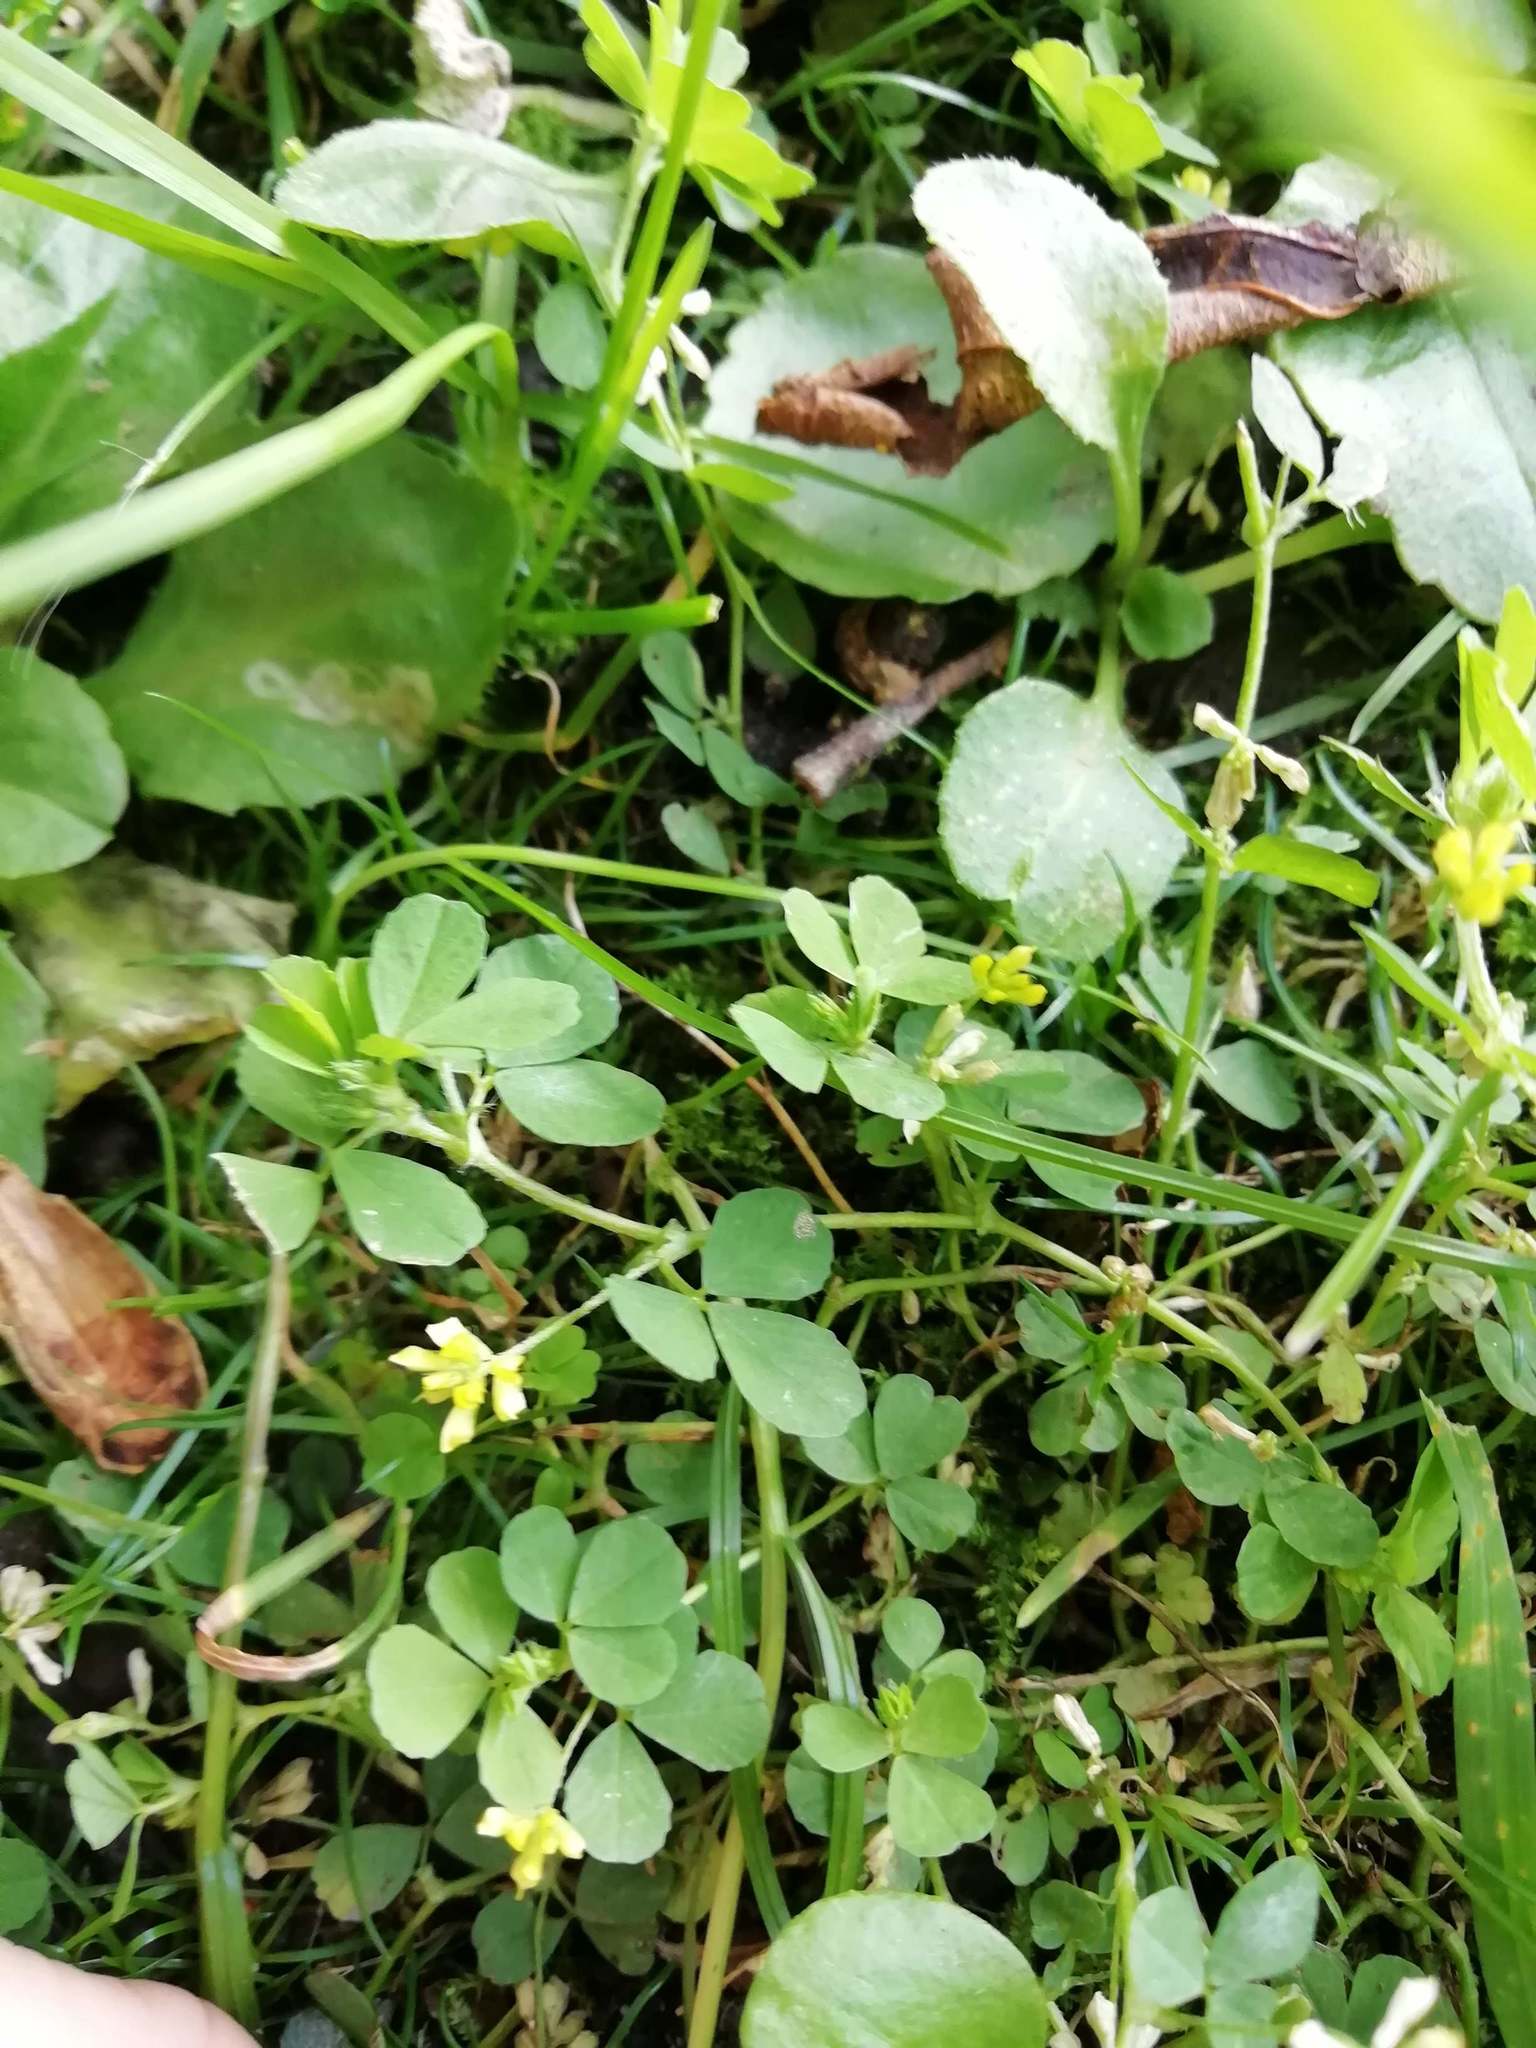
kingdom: Plantae
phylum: Tracheophyta
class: Magnoliopsida
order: Fabales
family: Fabaceae
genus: Trifolium
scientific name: Trifolium dubium
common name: Suckling clover
